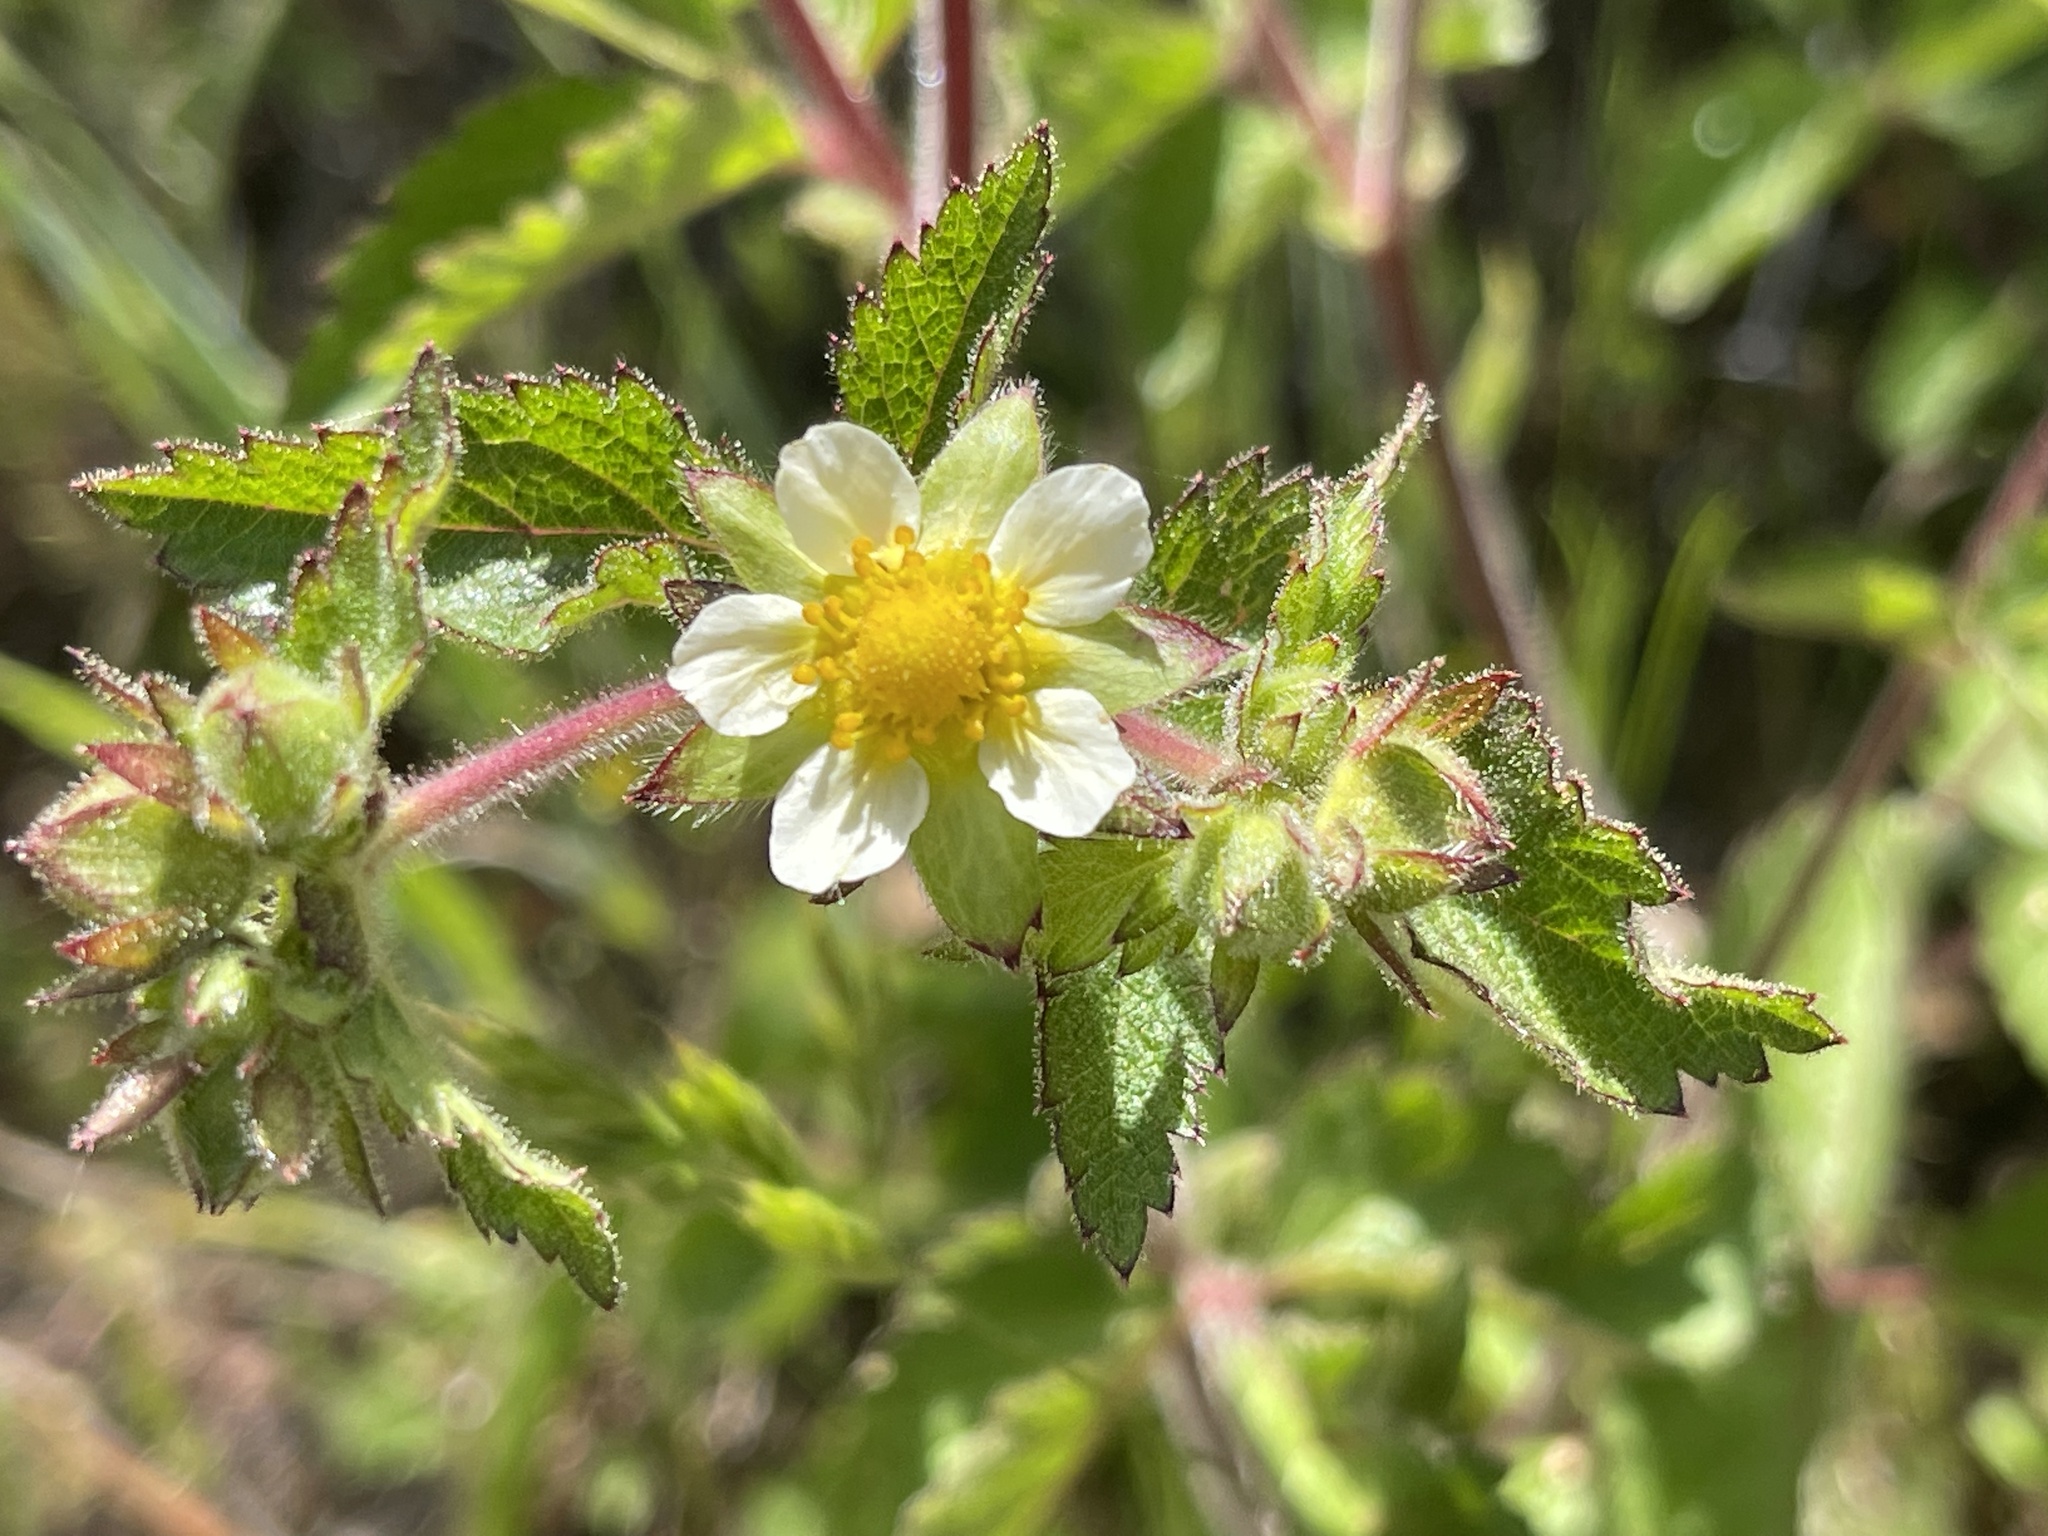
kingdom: Plantae
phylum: Tracheophyta
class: Magnoliopsida
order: Rosales
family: Rosaceae
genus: Drymocallis
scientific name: Drymocallis glandulosa
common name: Sticky cinquefoil
